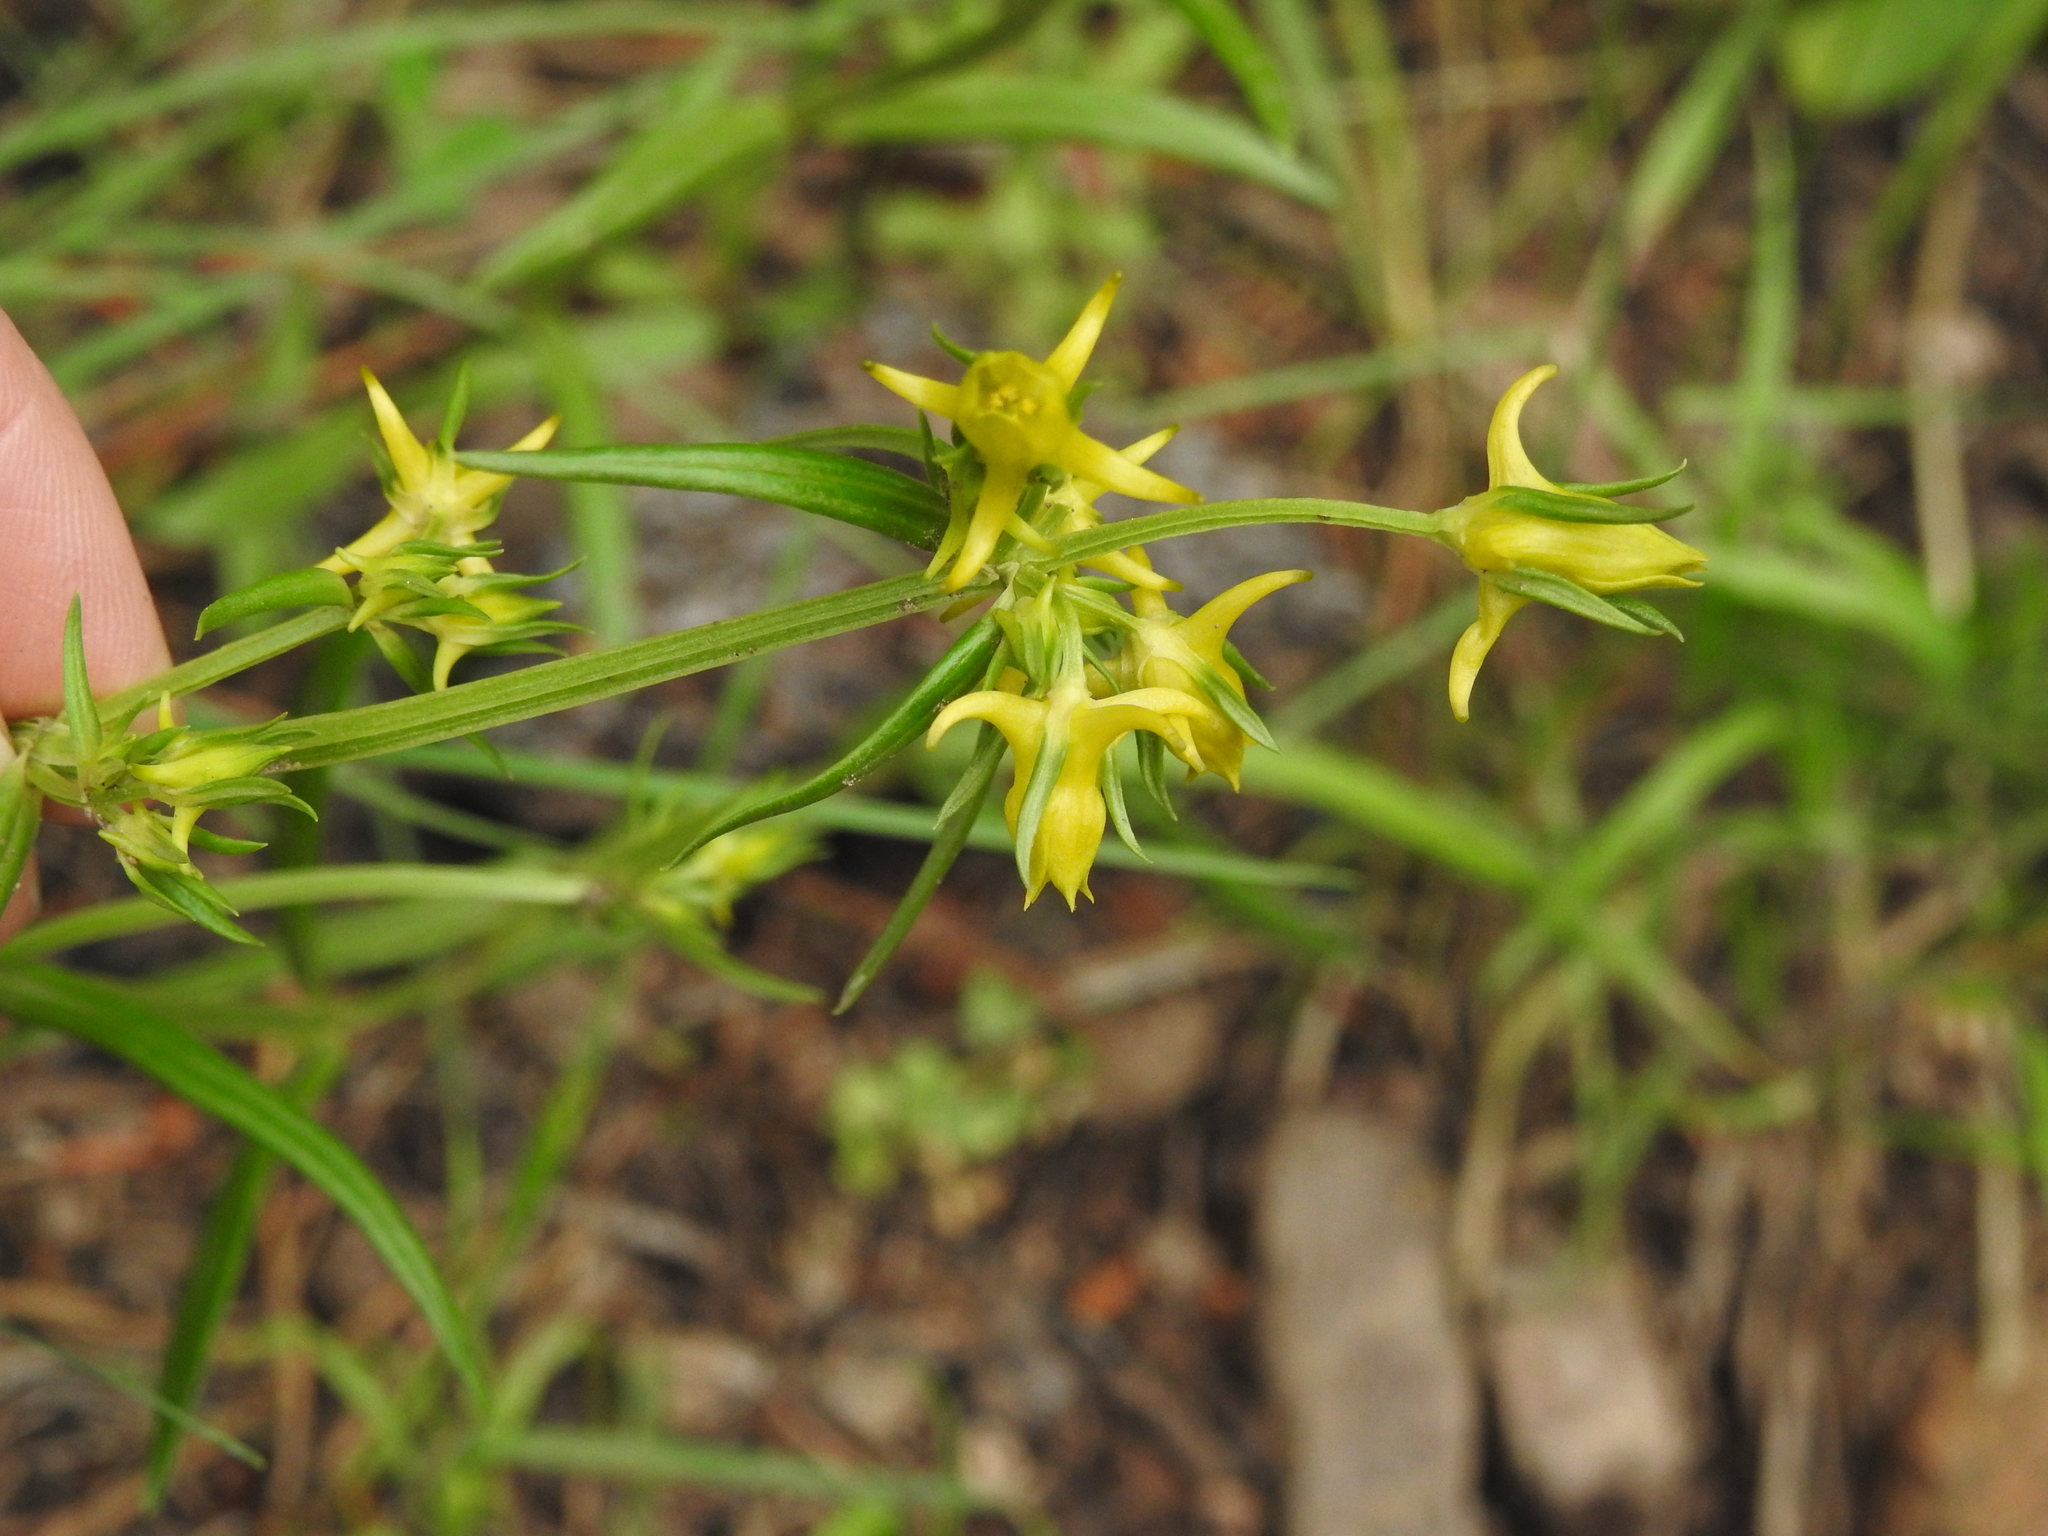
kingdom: Plantae
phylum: Tracheophyta
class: Magnoliopsida
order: Gentianales
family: Gentianaceae
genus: Halenia
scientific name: Halenia recurva
